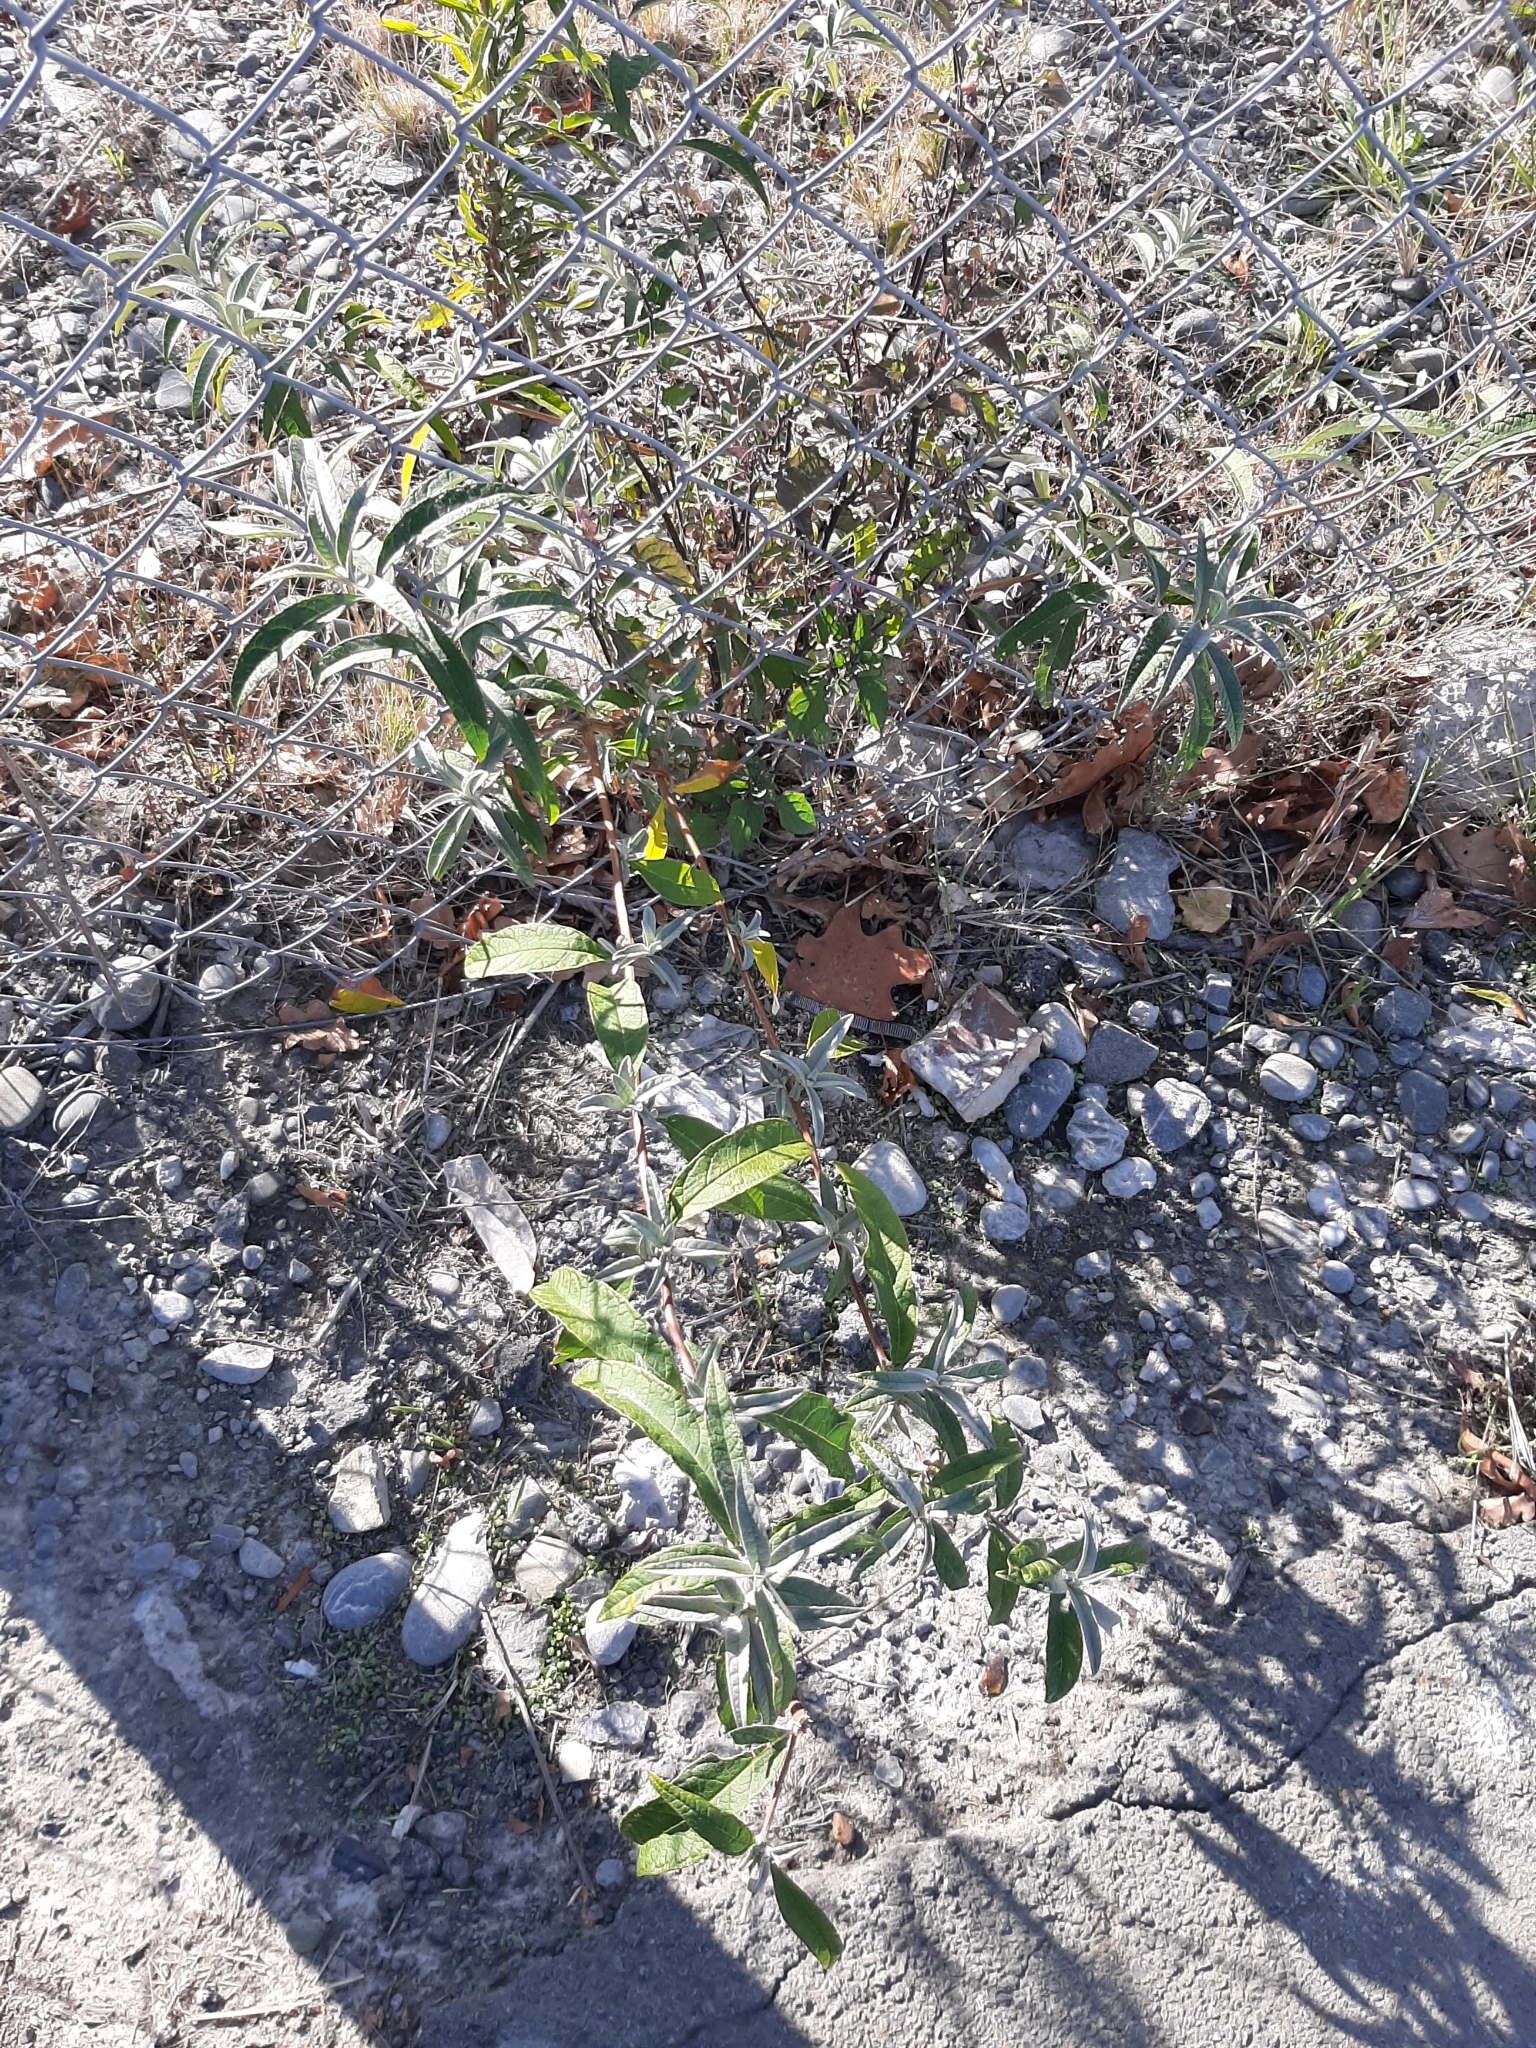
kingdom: Plantae
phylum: Tracheophyta
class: Magnoliopsida
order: Lamiales
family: Scrophulariaceae
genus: Buddleja
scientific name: Buddleja davidii
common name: Butterfly-bush
